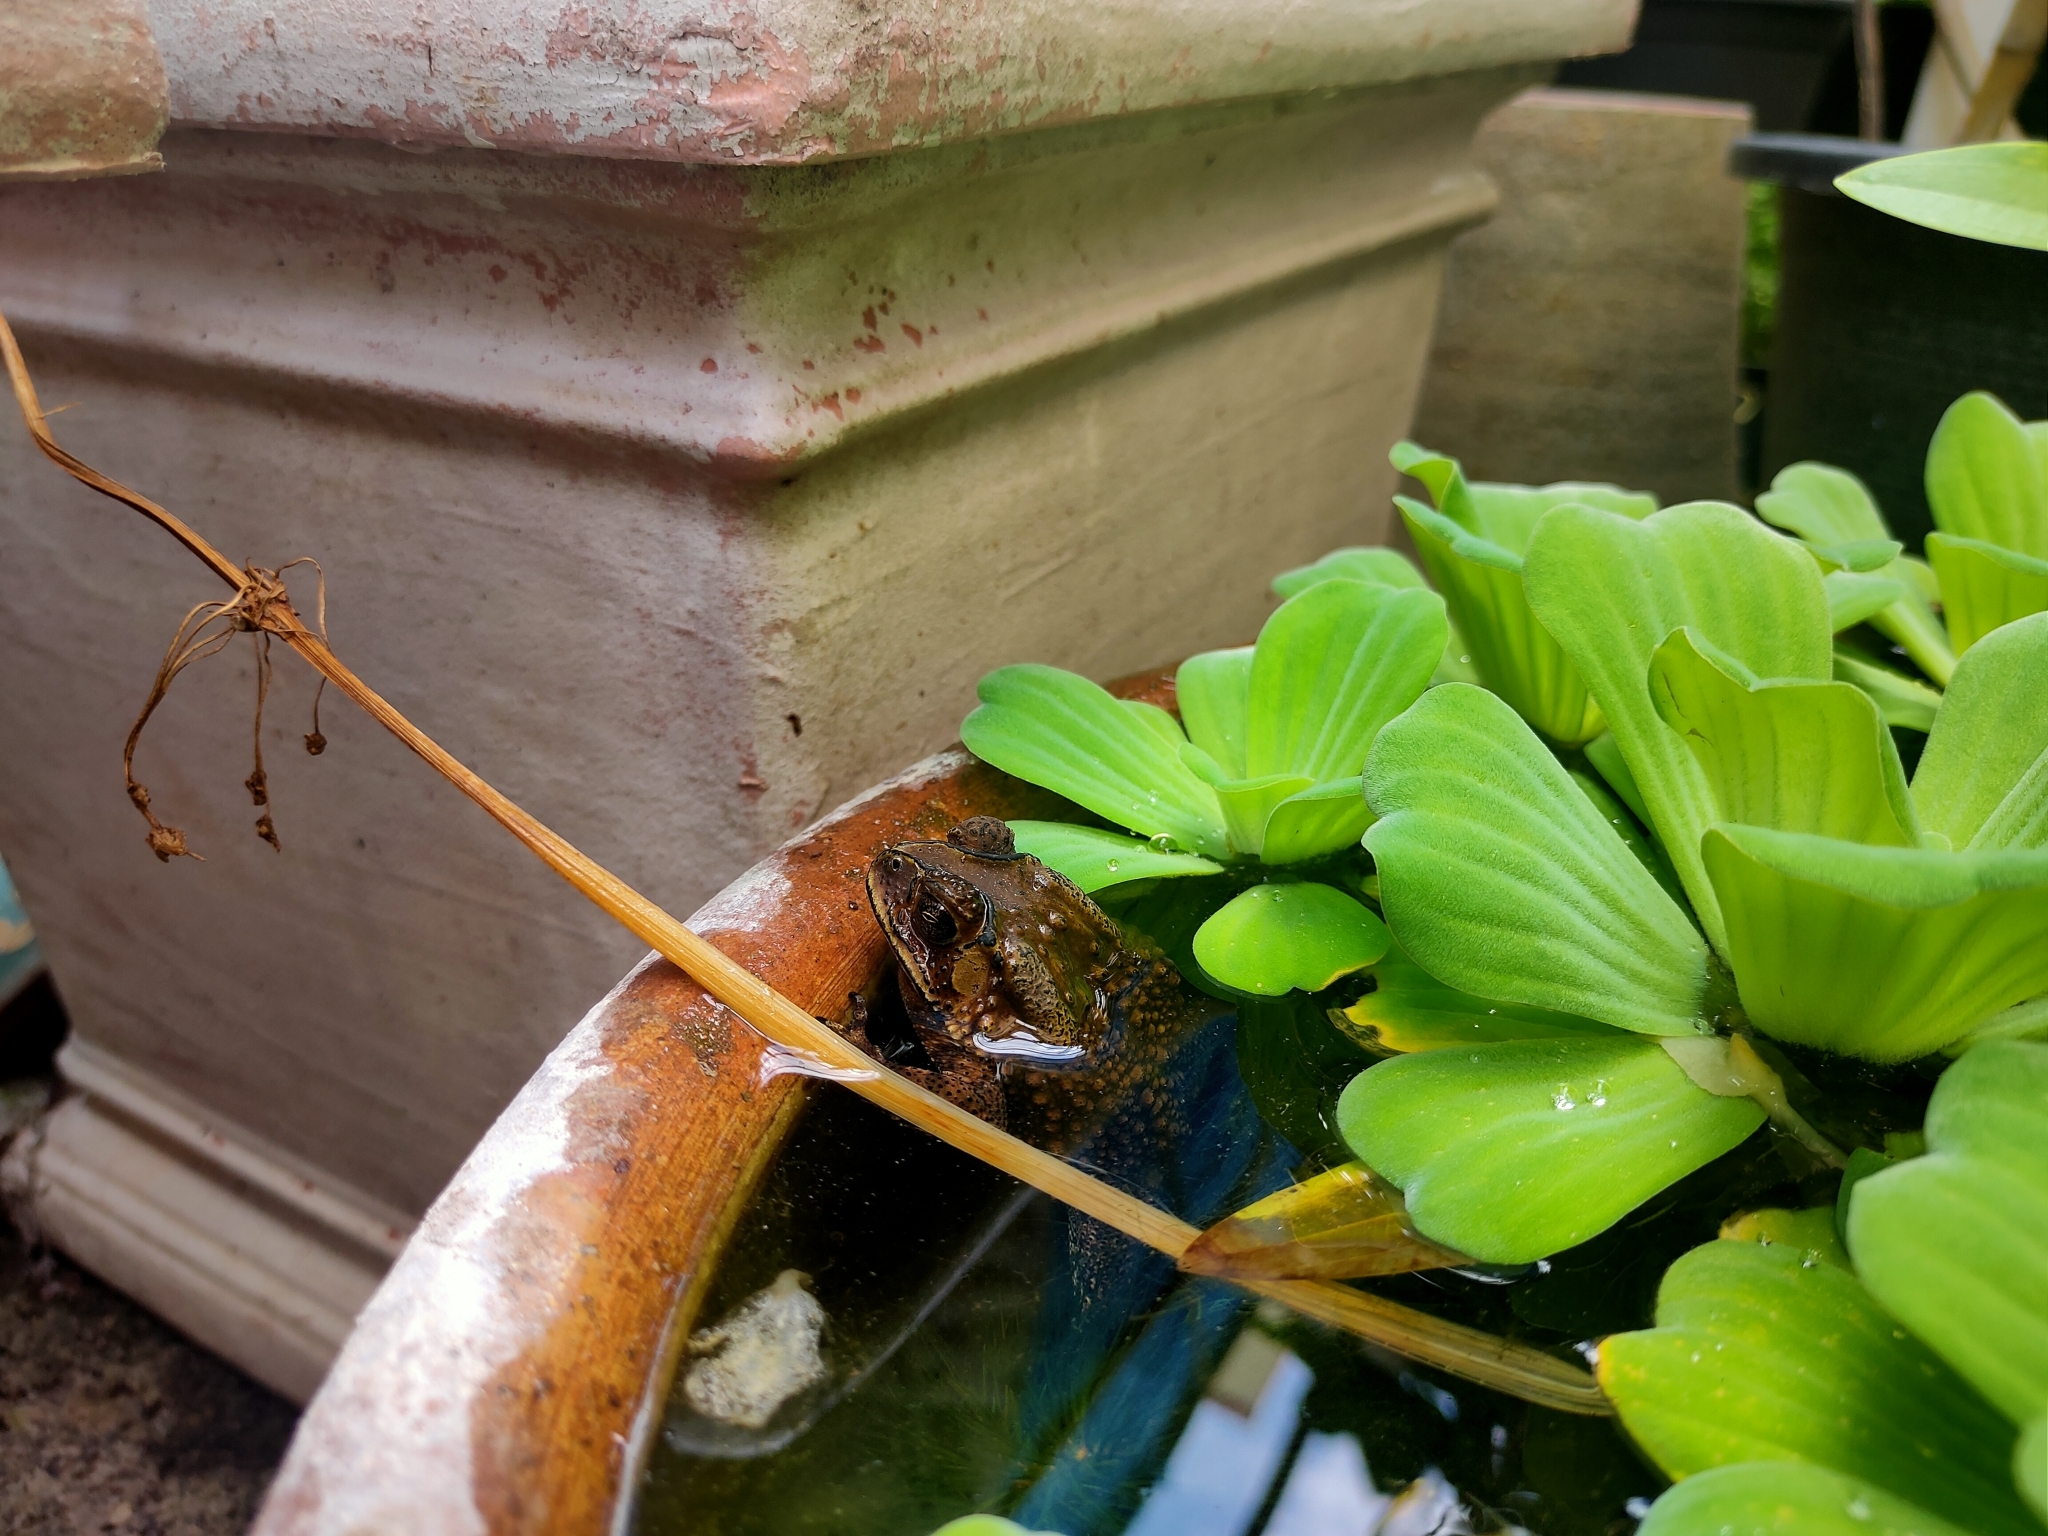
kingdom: Animalia
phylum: Chordata
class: Amphibia
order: Anura
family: Bufonidae
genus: Duttaphrynus
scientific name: Duttaphrynus melanostictus
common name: Common sunda toad
